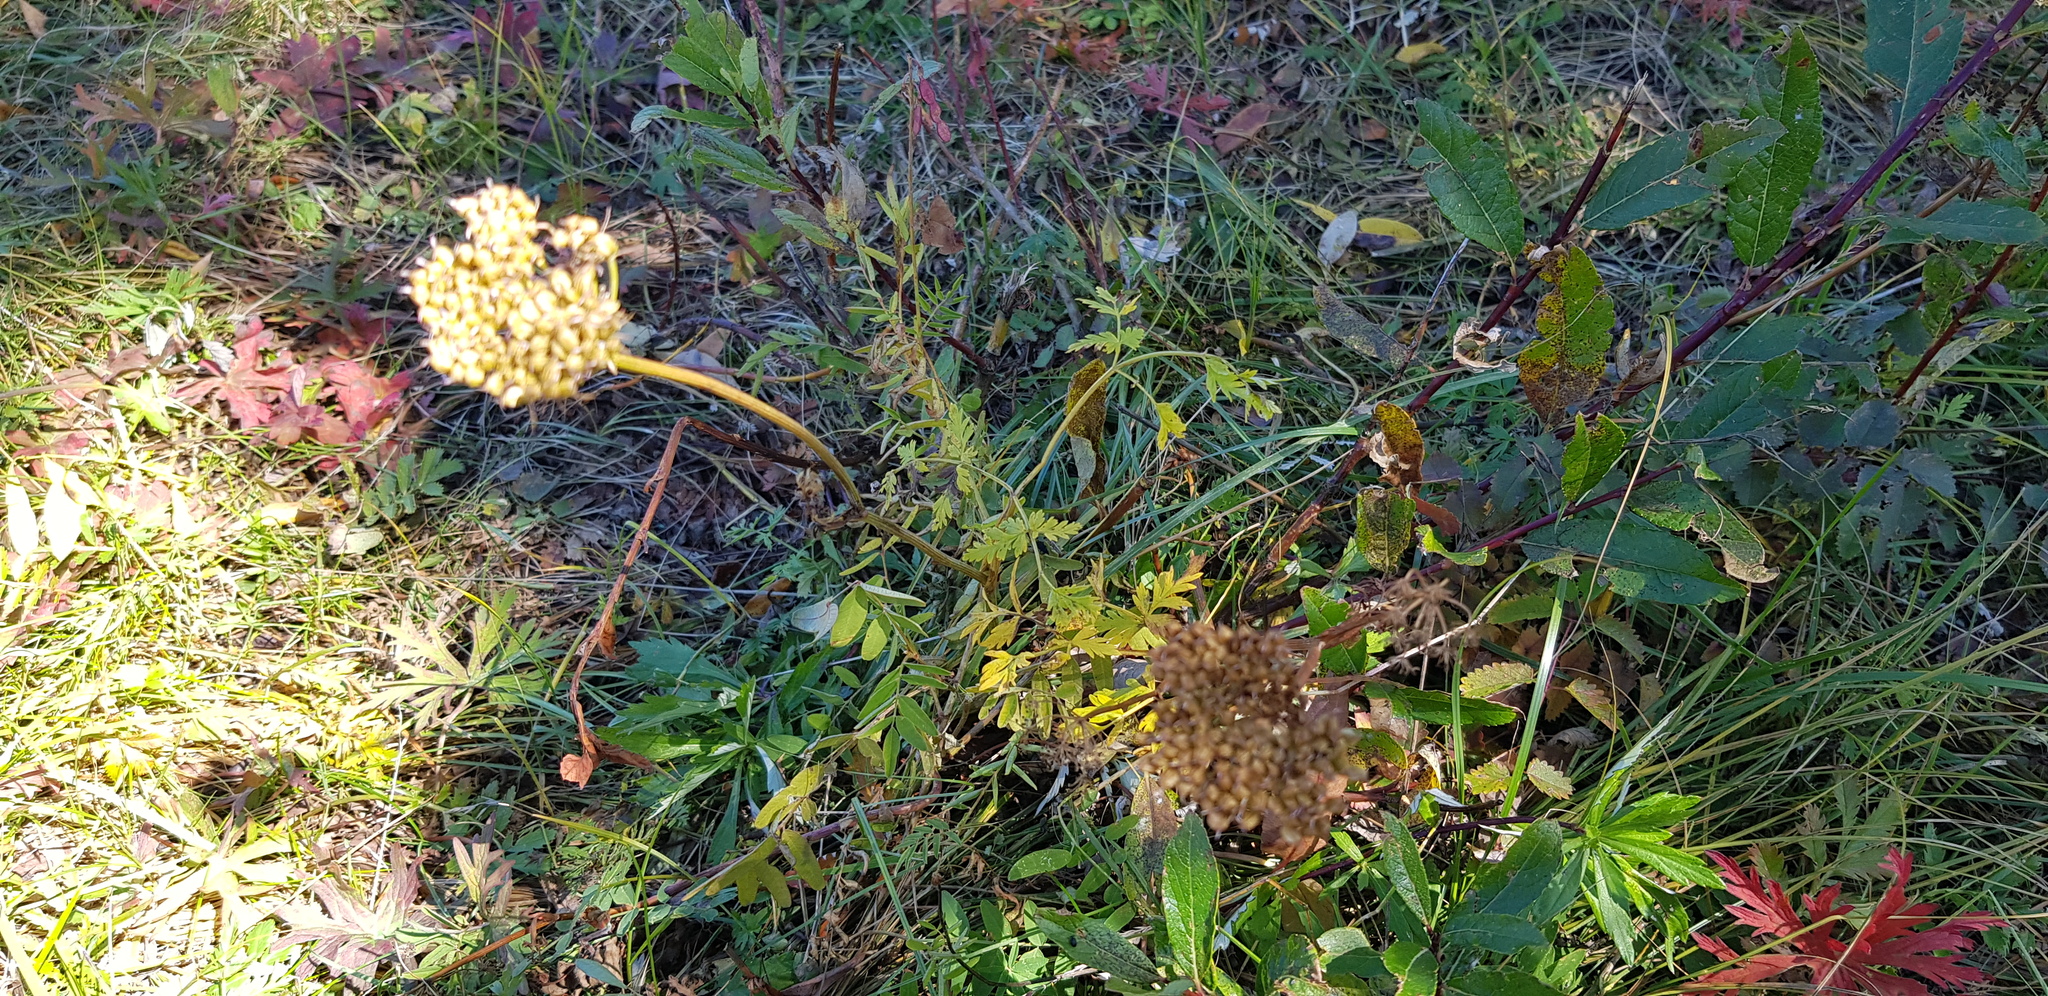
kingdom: Plantae
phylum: Tracheophyta
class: Magnoliopsida
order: Apiales
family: Apiaceae
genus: Conioselinum
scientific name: Conioselinum tataricum
